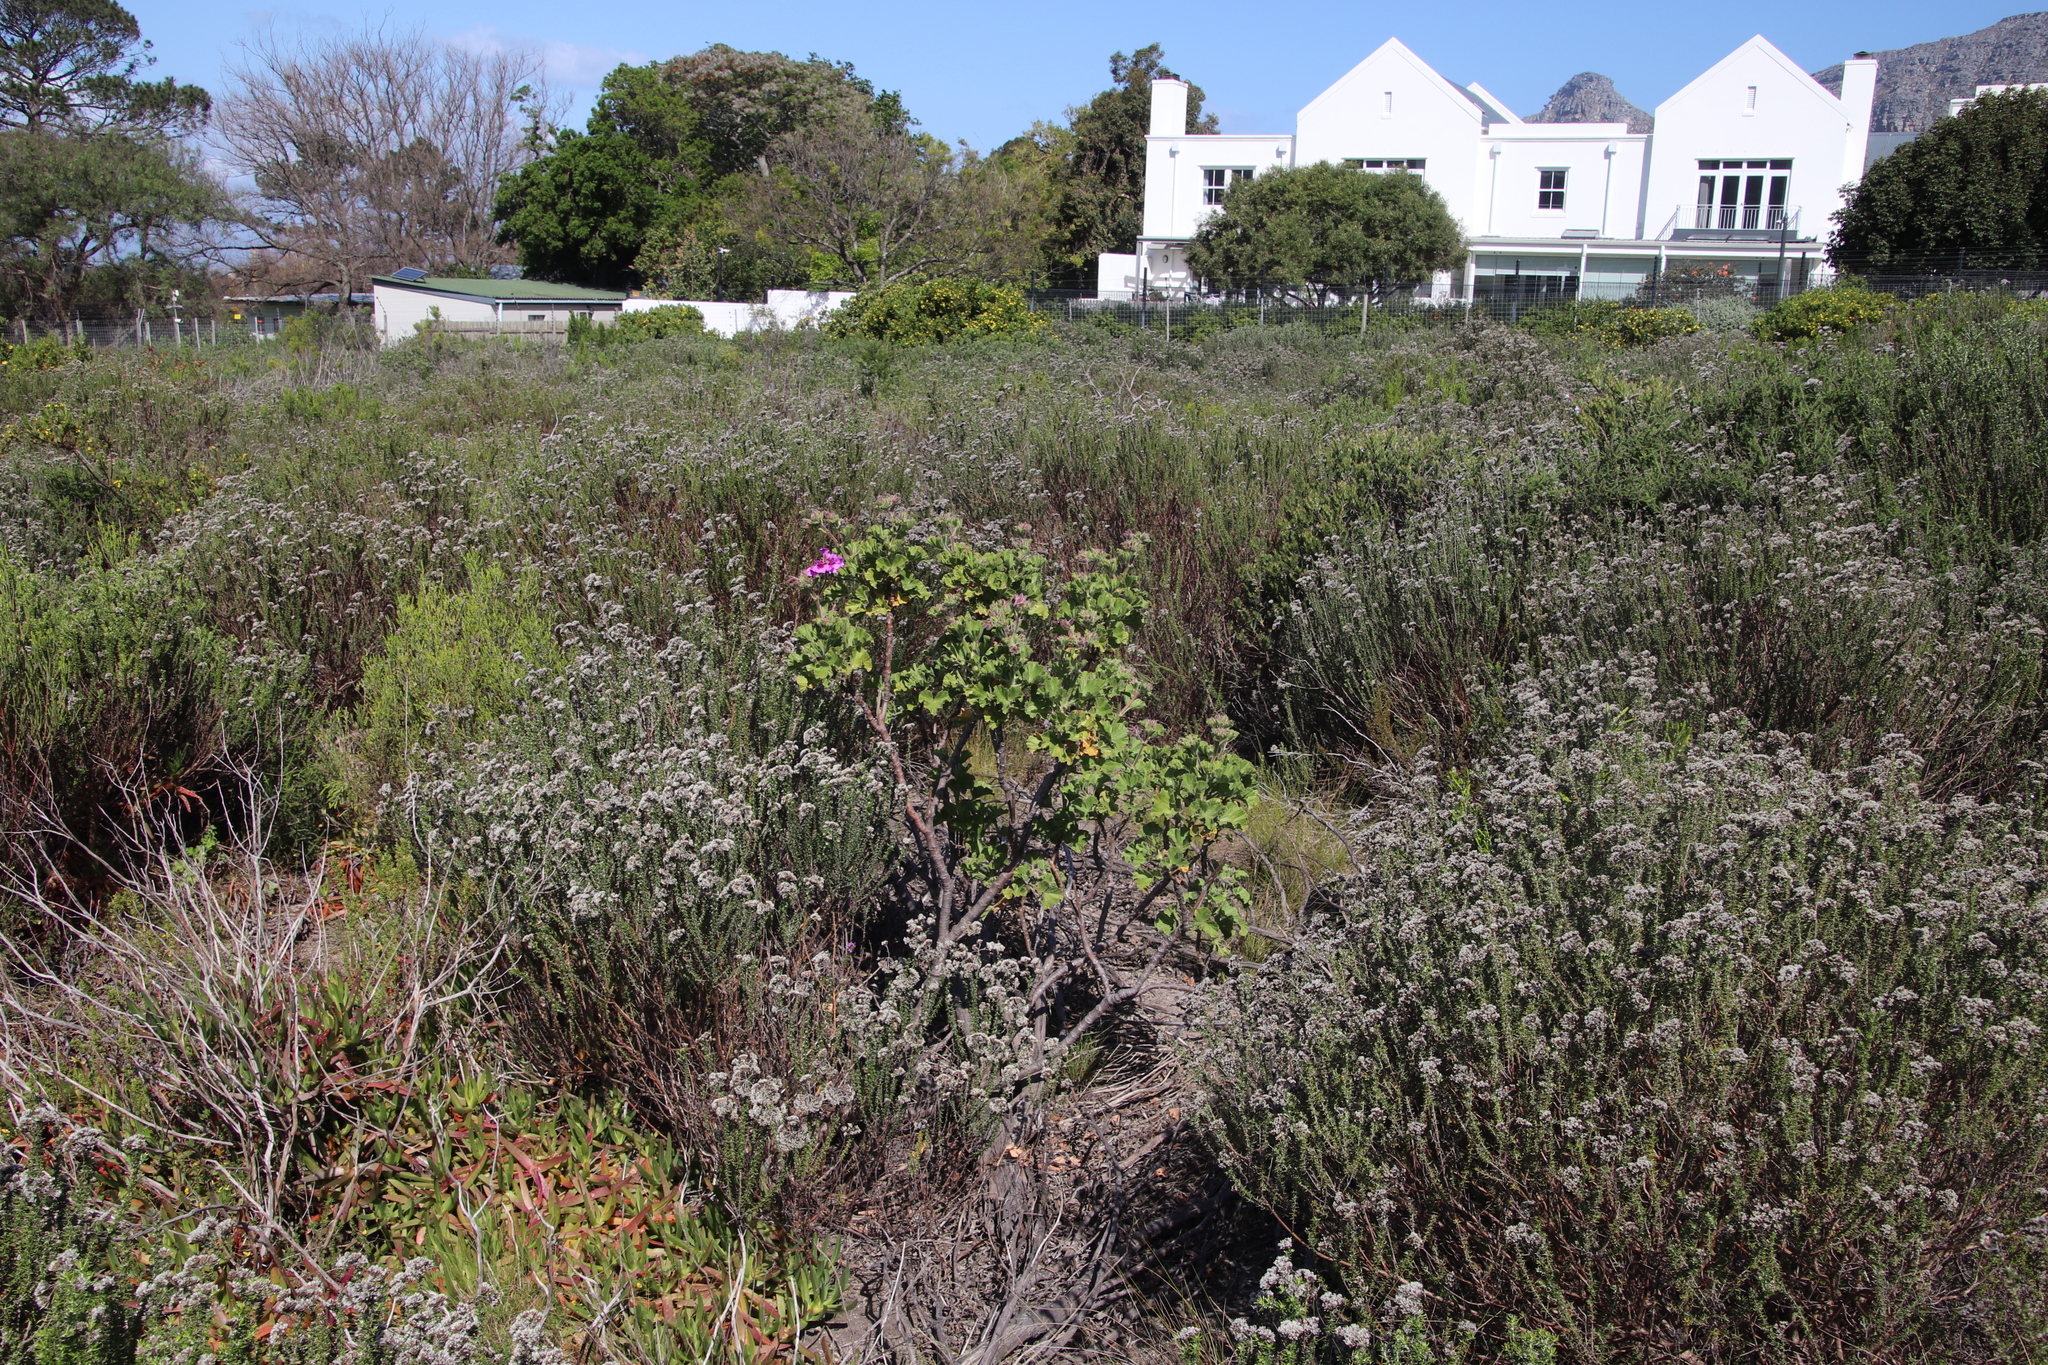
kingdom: Plantae
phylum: Tracheophyta
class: Magnoliopsida
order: Geraniales
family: Geraniaceae
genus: Pelargonium
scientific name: Pelargonium cucullatum
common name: Tree pelargonium
